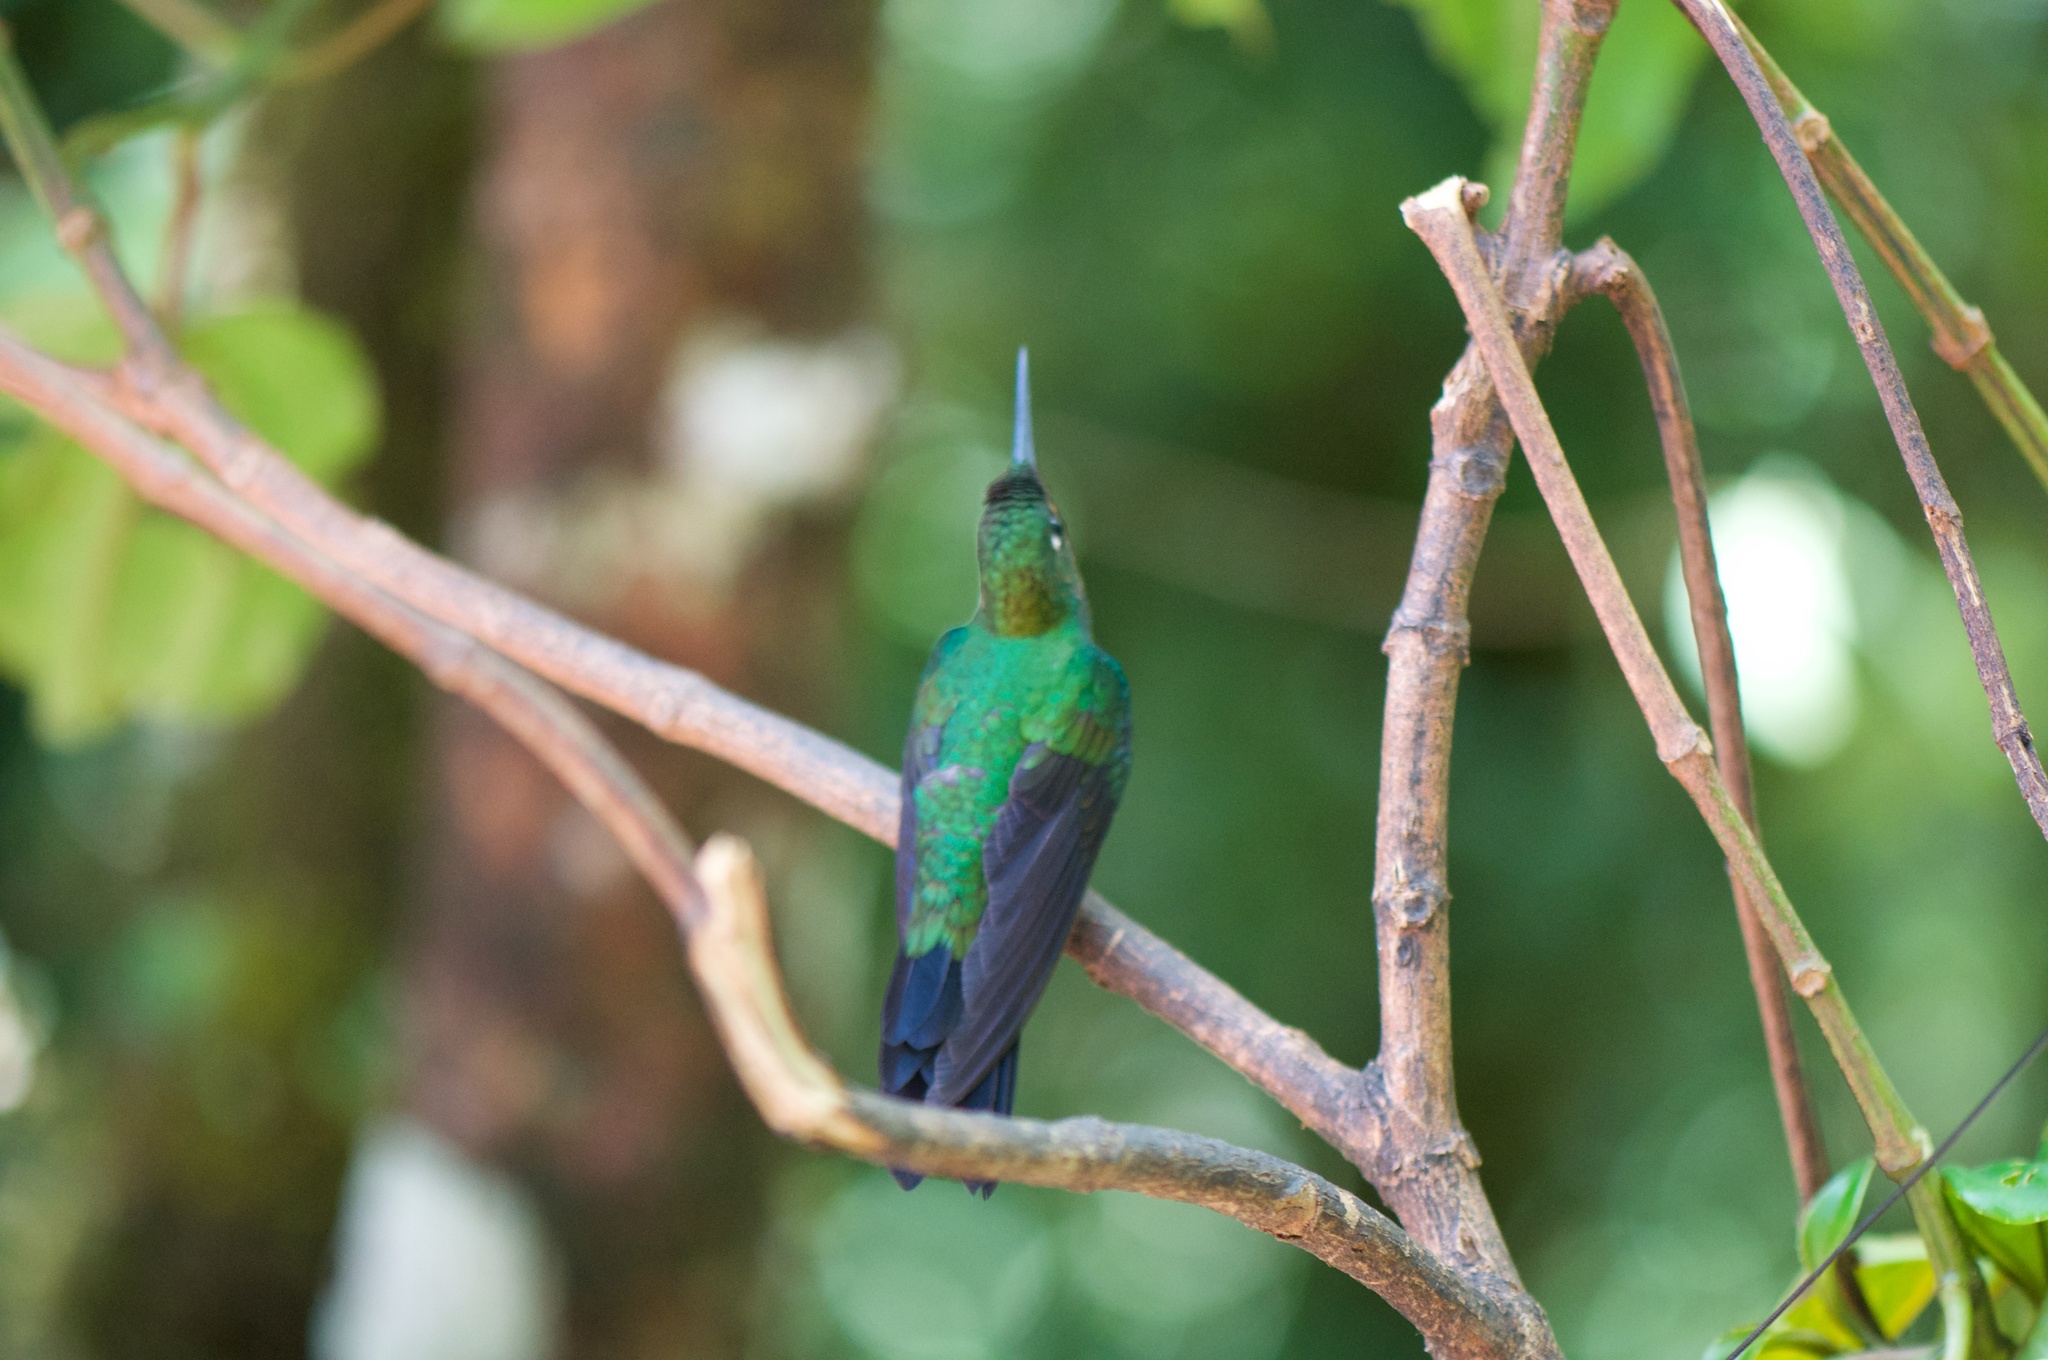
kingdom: Animalia
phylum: Chordata
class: Aves
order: Apodiformes
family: Trochilidae
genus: Heliodoxa
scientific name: Heliodoxa jacula
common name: Green-crowned brilliant
